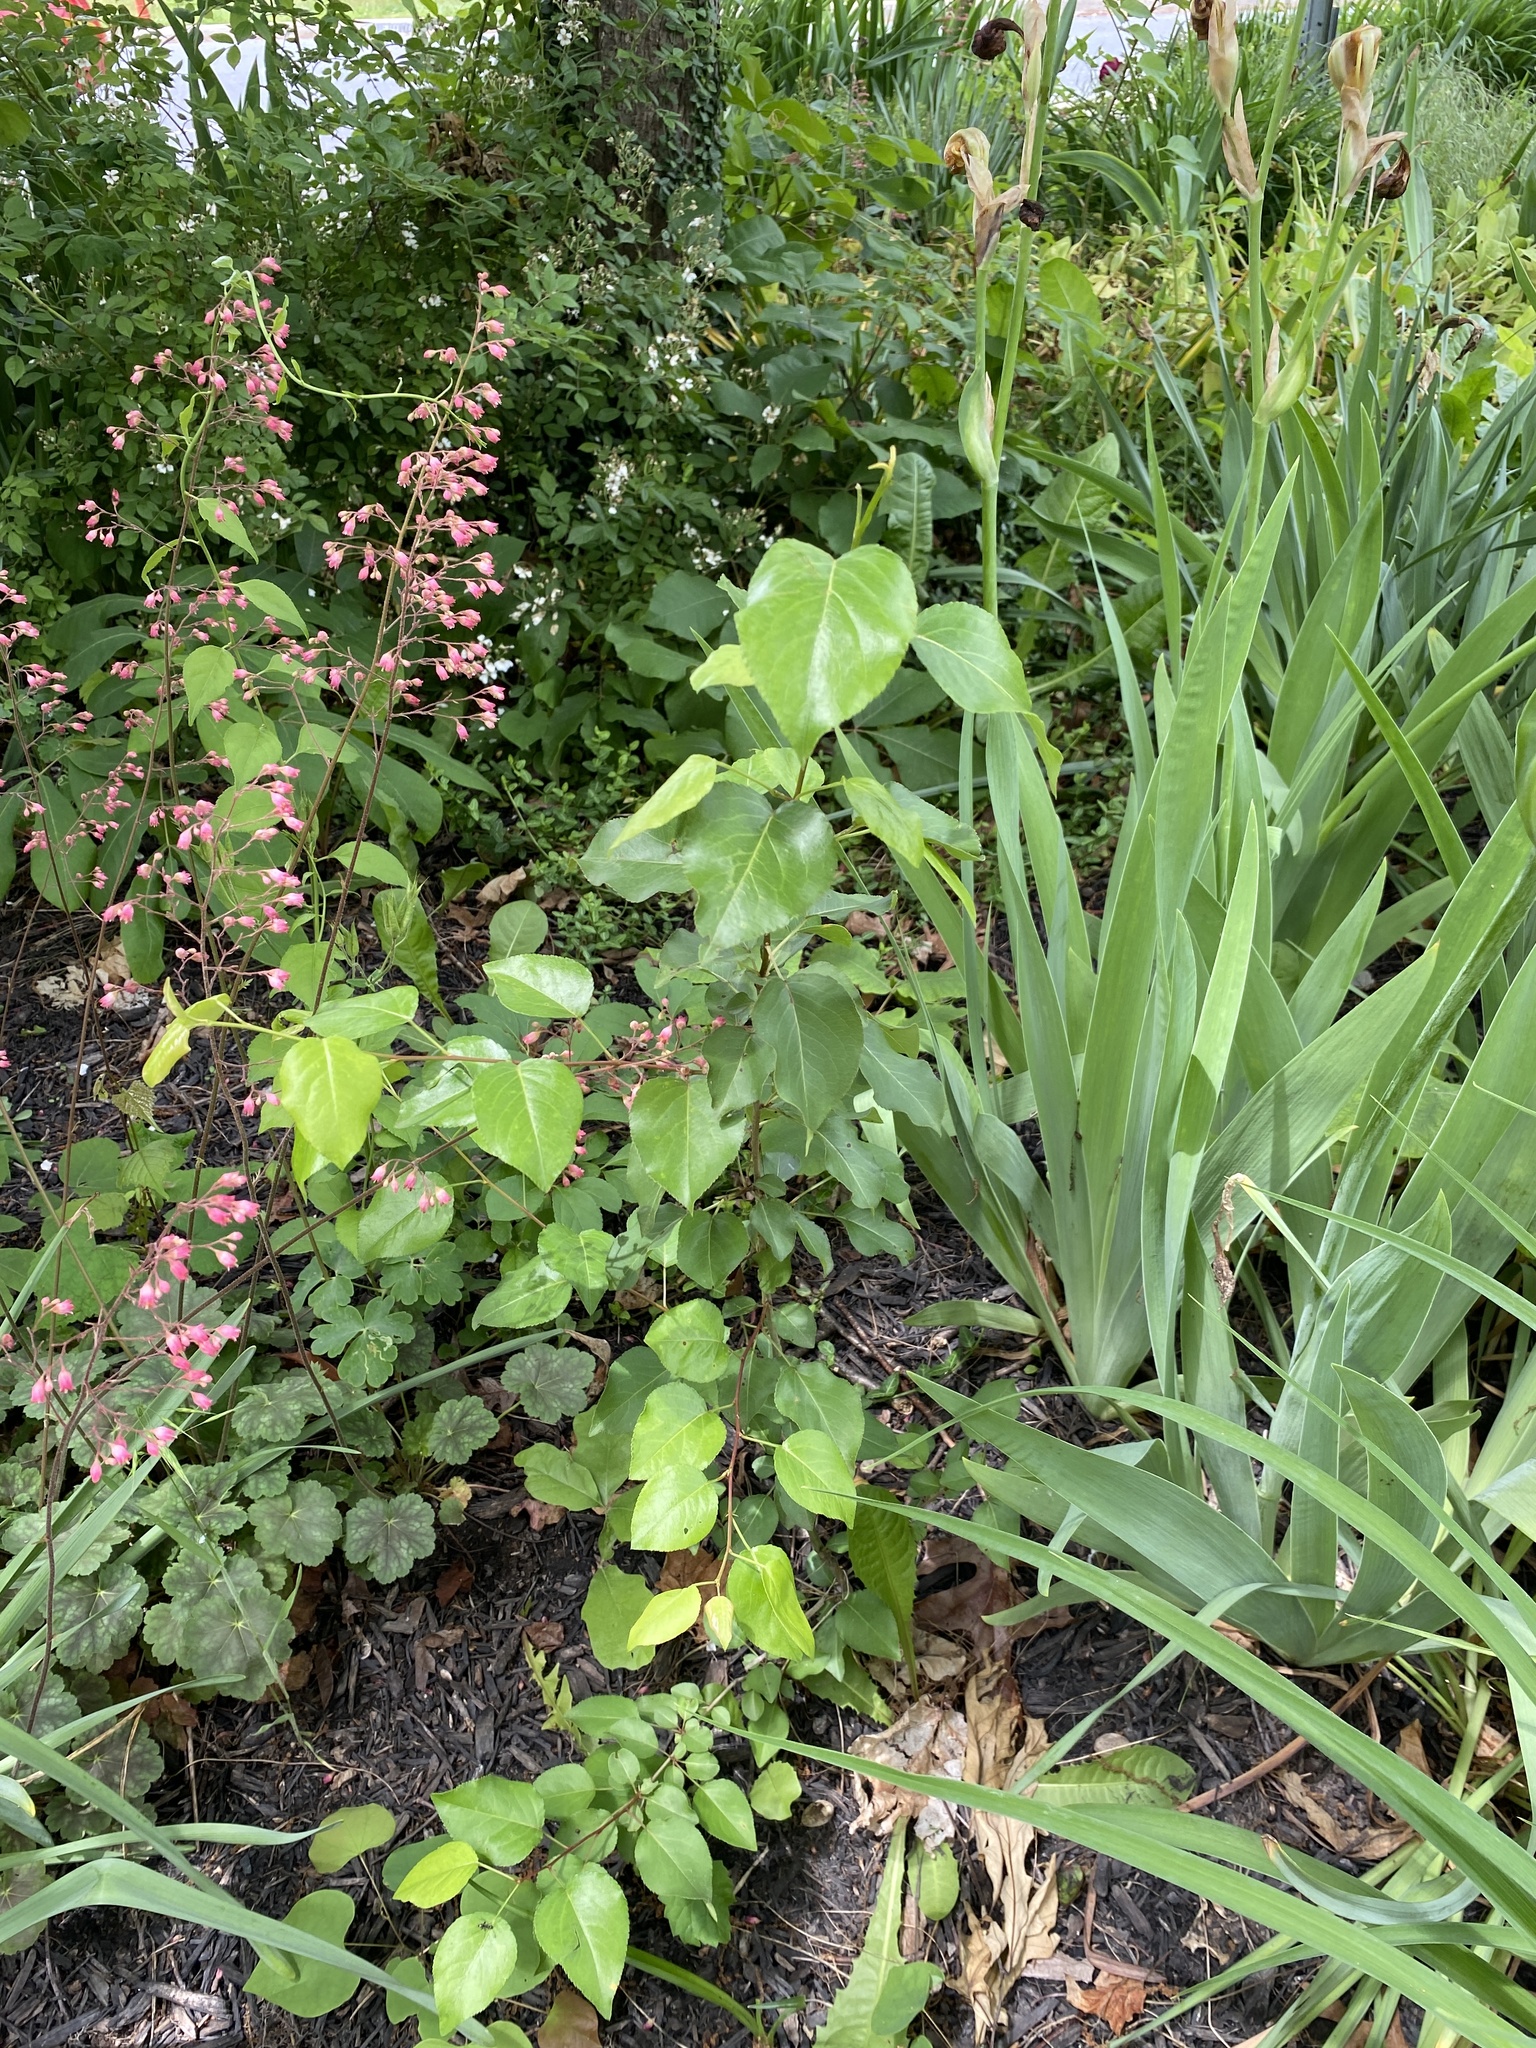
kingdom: Plantae
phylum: Tracheophyta
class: Magnoliopsida
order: Rosales
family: Rosaceae
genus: Pyrus
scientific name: Pyrus calleryana
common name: Callery pear
